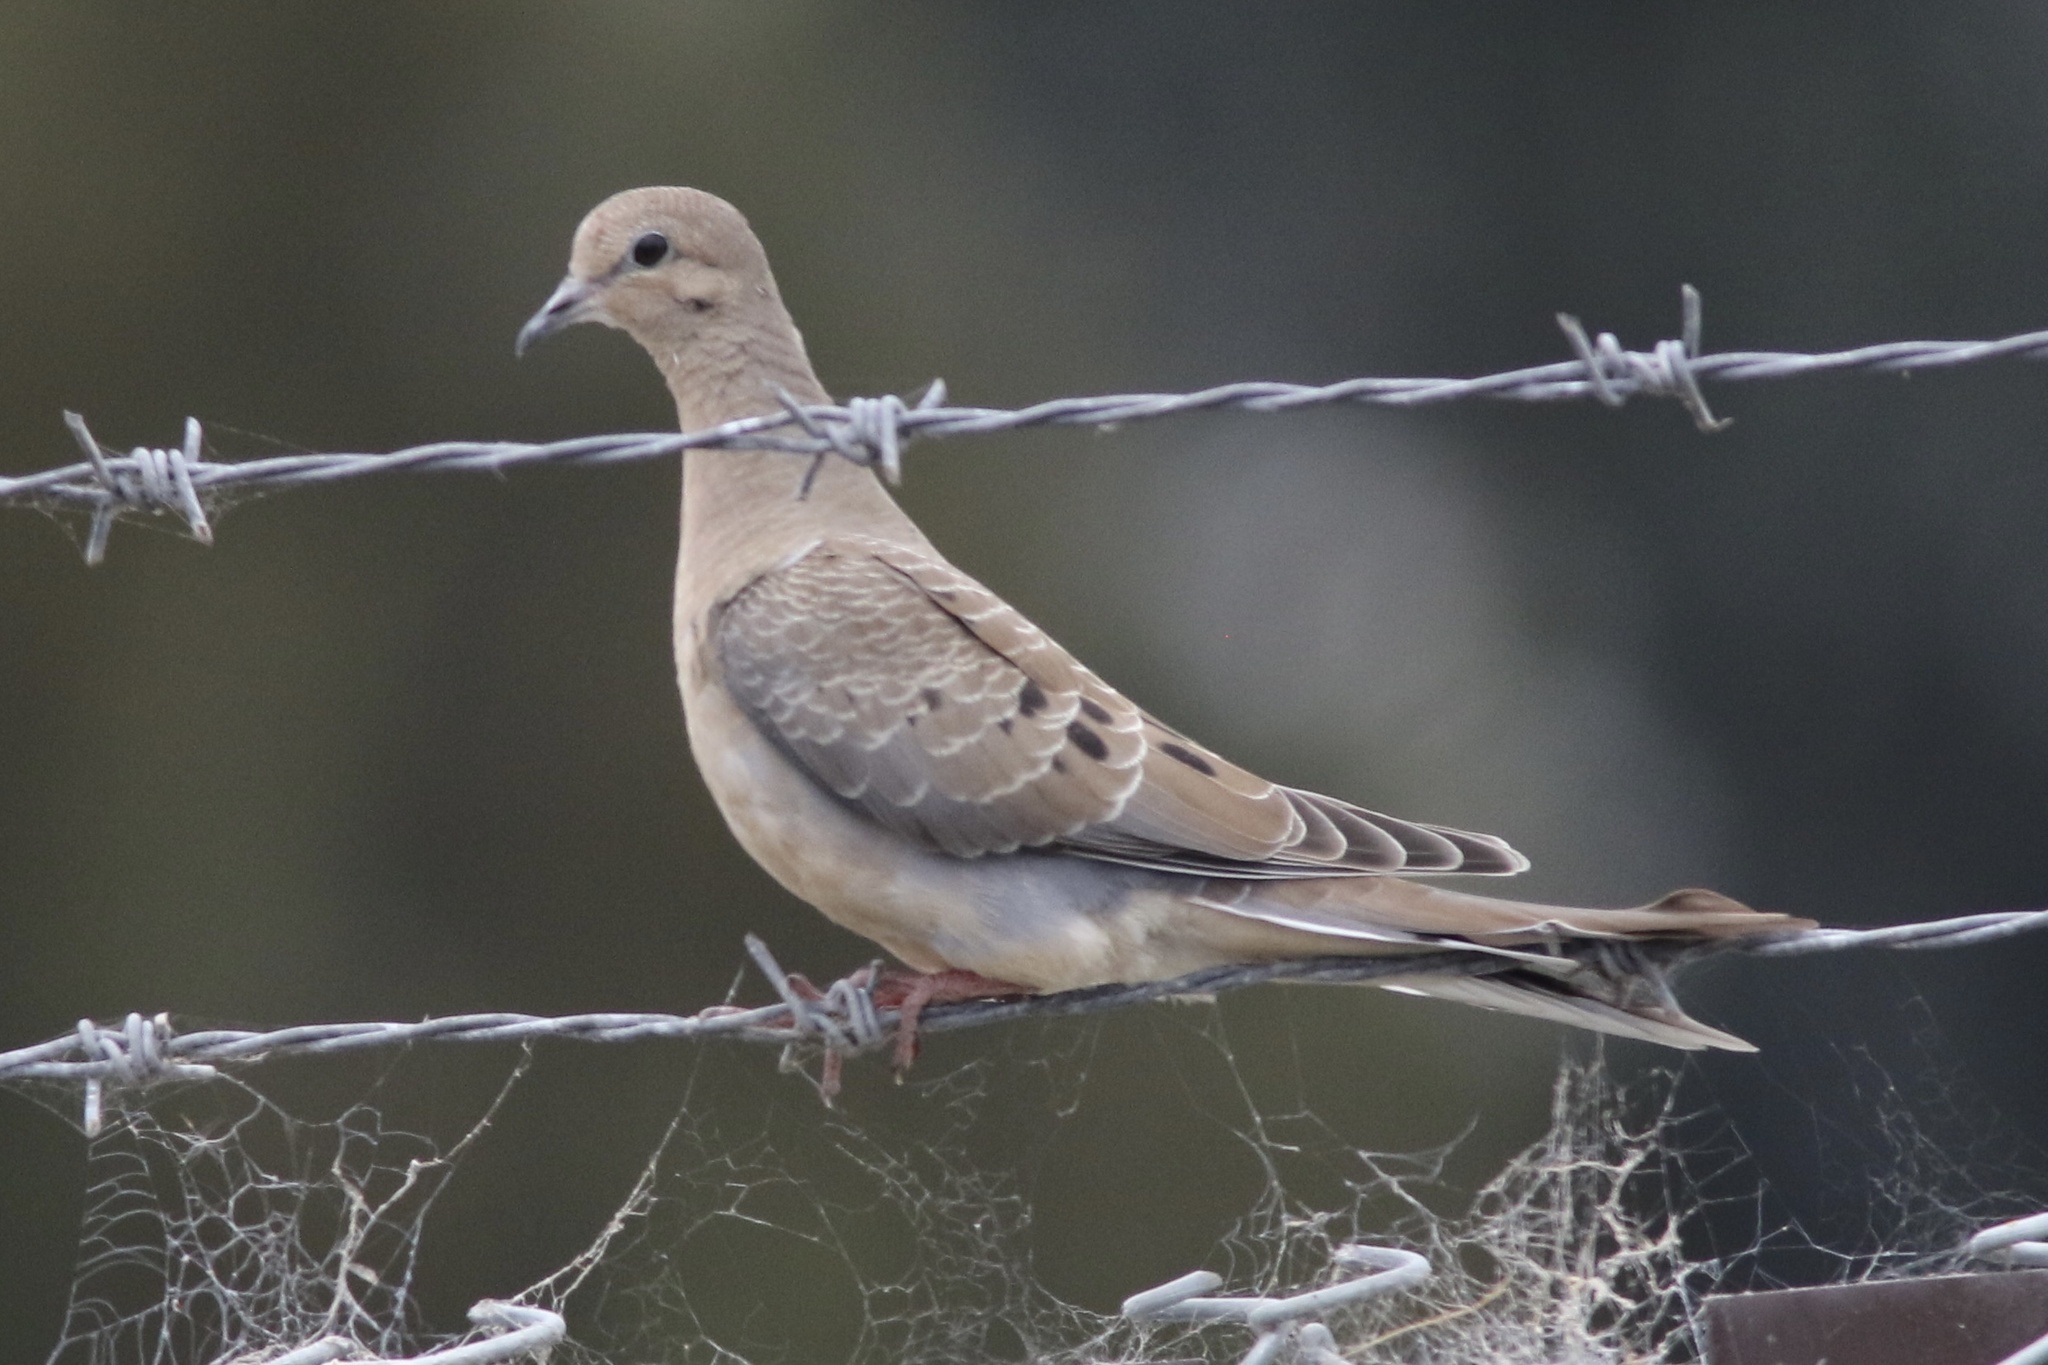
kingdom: Animalia
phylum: Chordata
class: Aves
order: Columbiformes
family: Columbidae
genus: Zenaida
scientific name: Zenaida macroura
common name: Mourning dove
